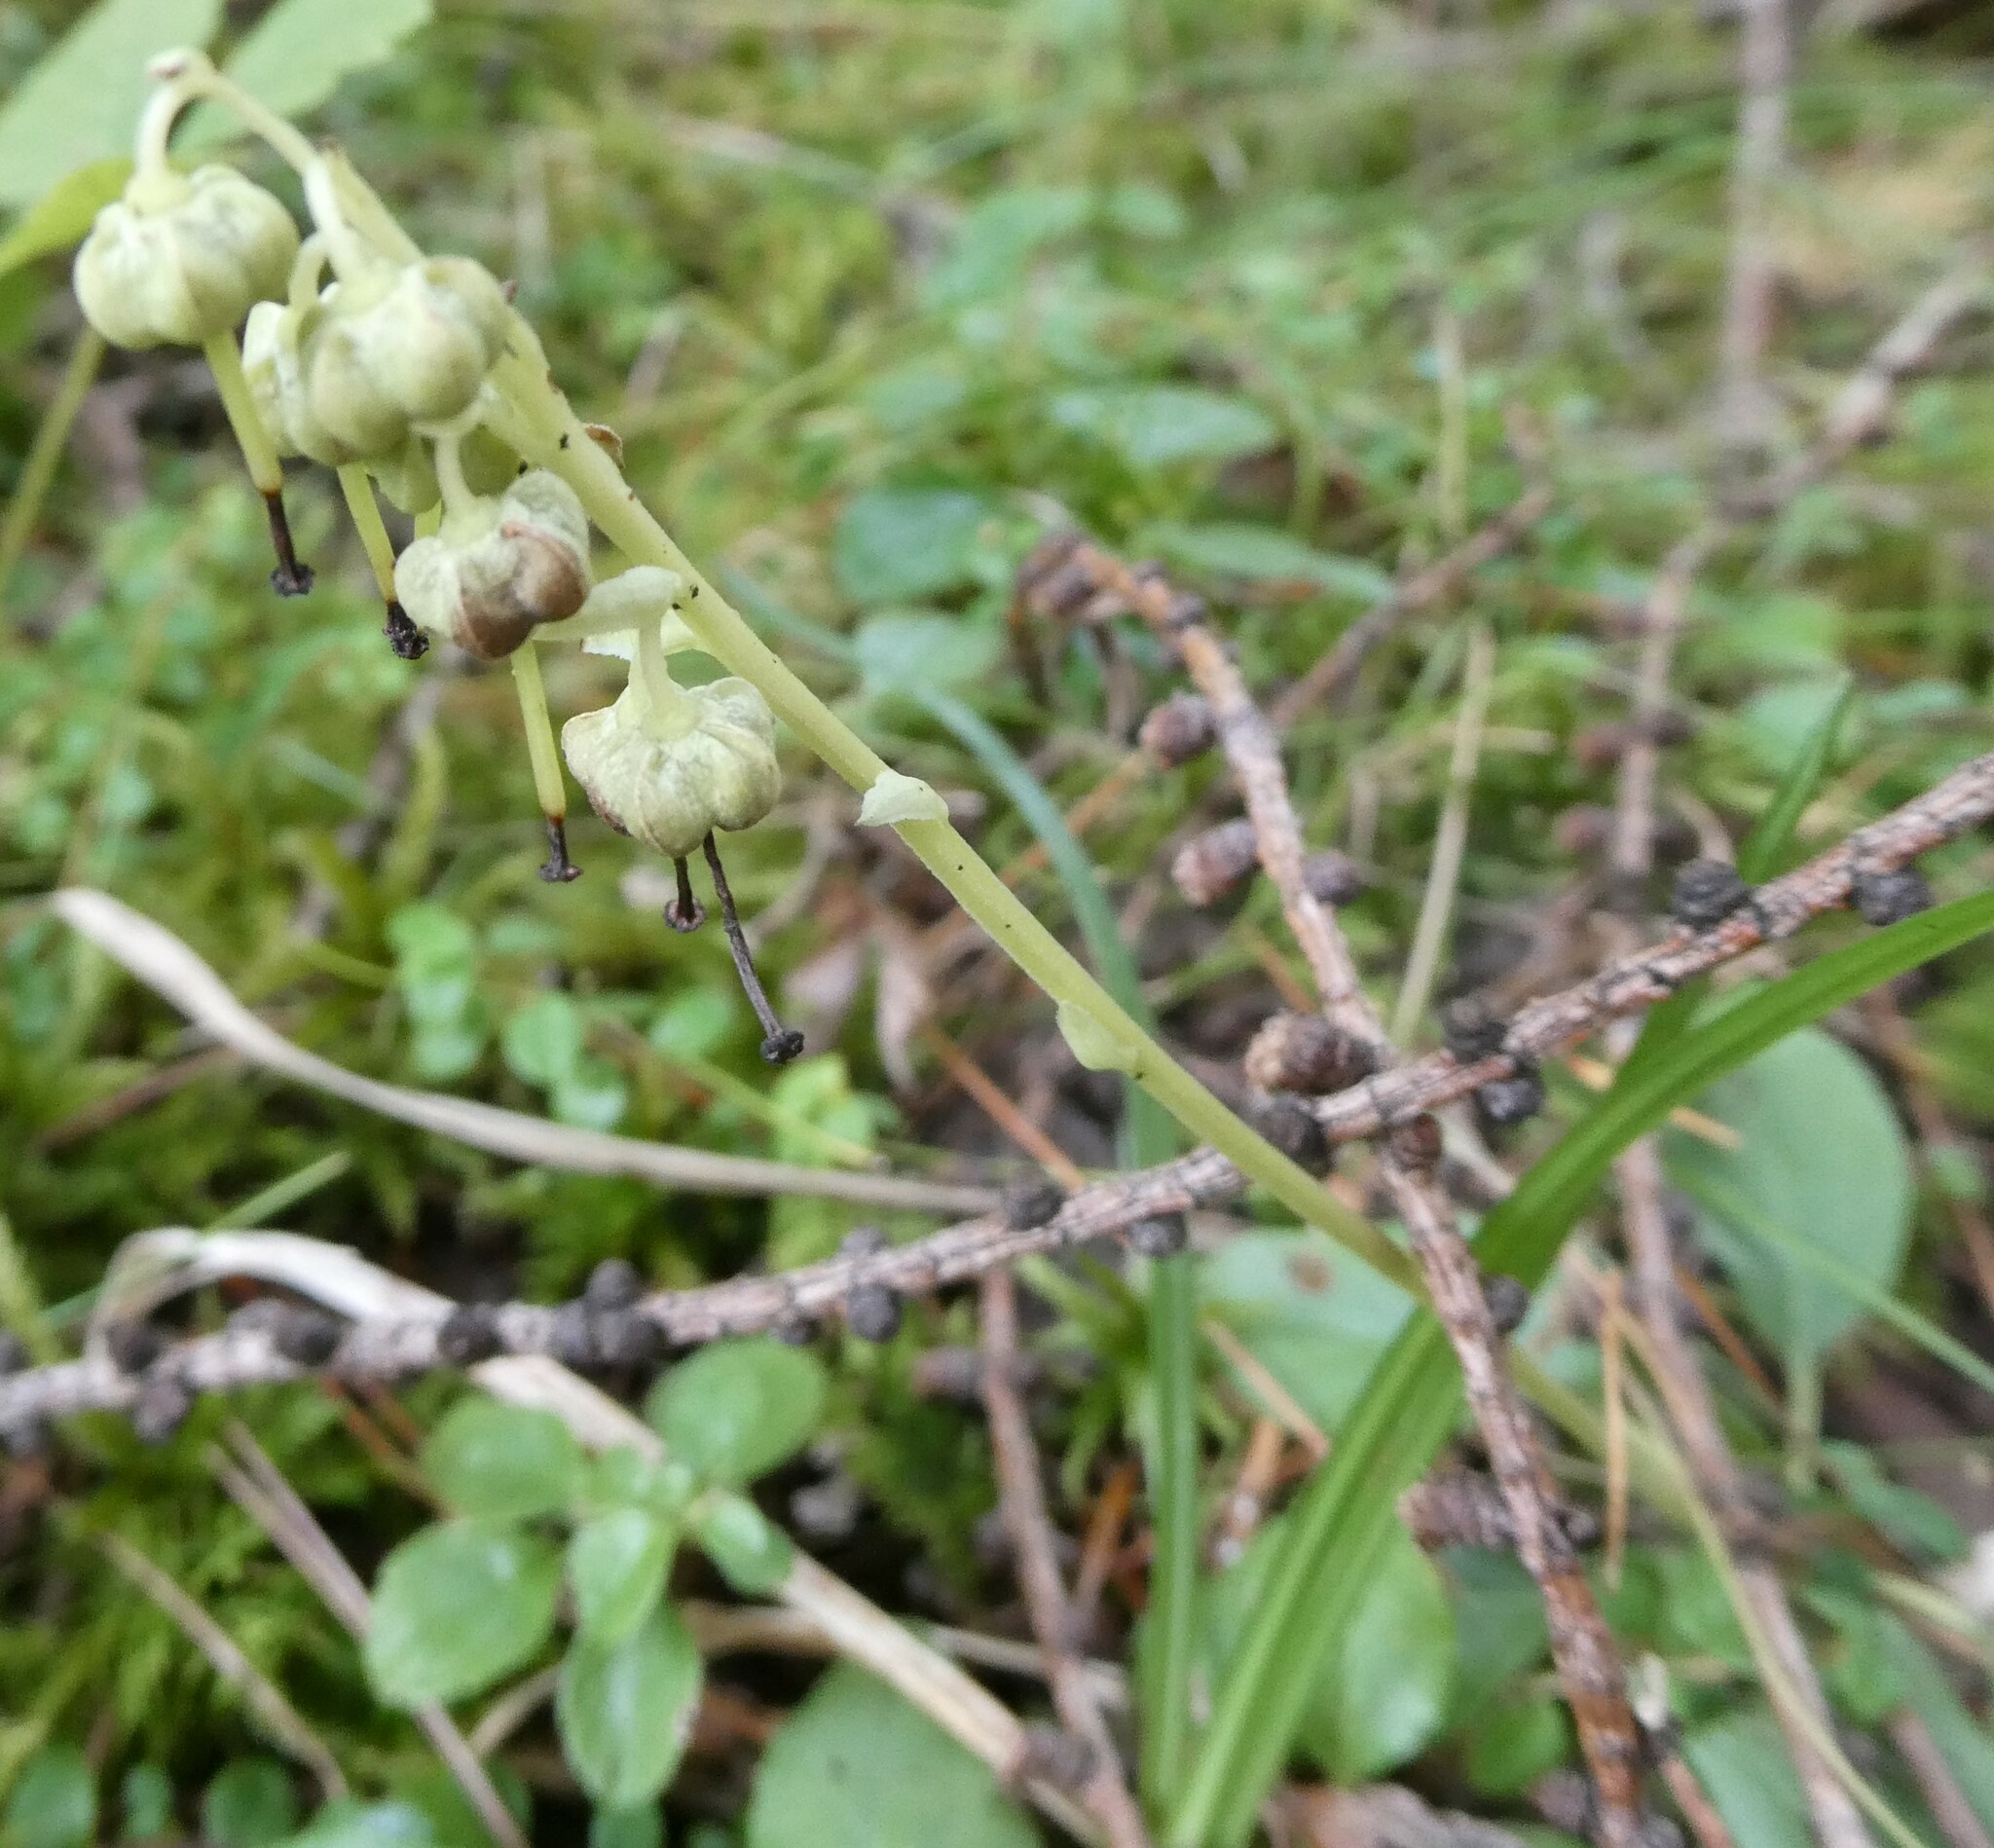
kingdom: Plantae
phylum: Tracheophyta
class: Magnoliopsida
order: Ericales
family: Ericaceae
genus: Orthilia
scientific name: Orthilia secunda
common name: One-sided orthilia
